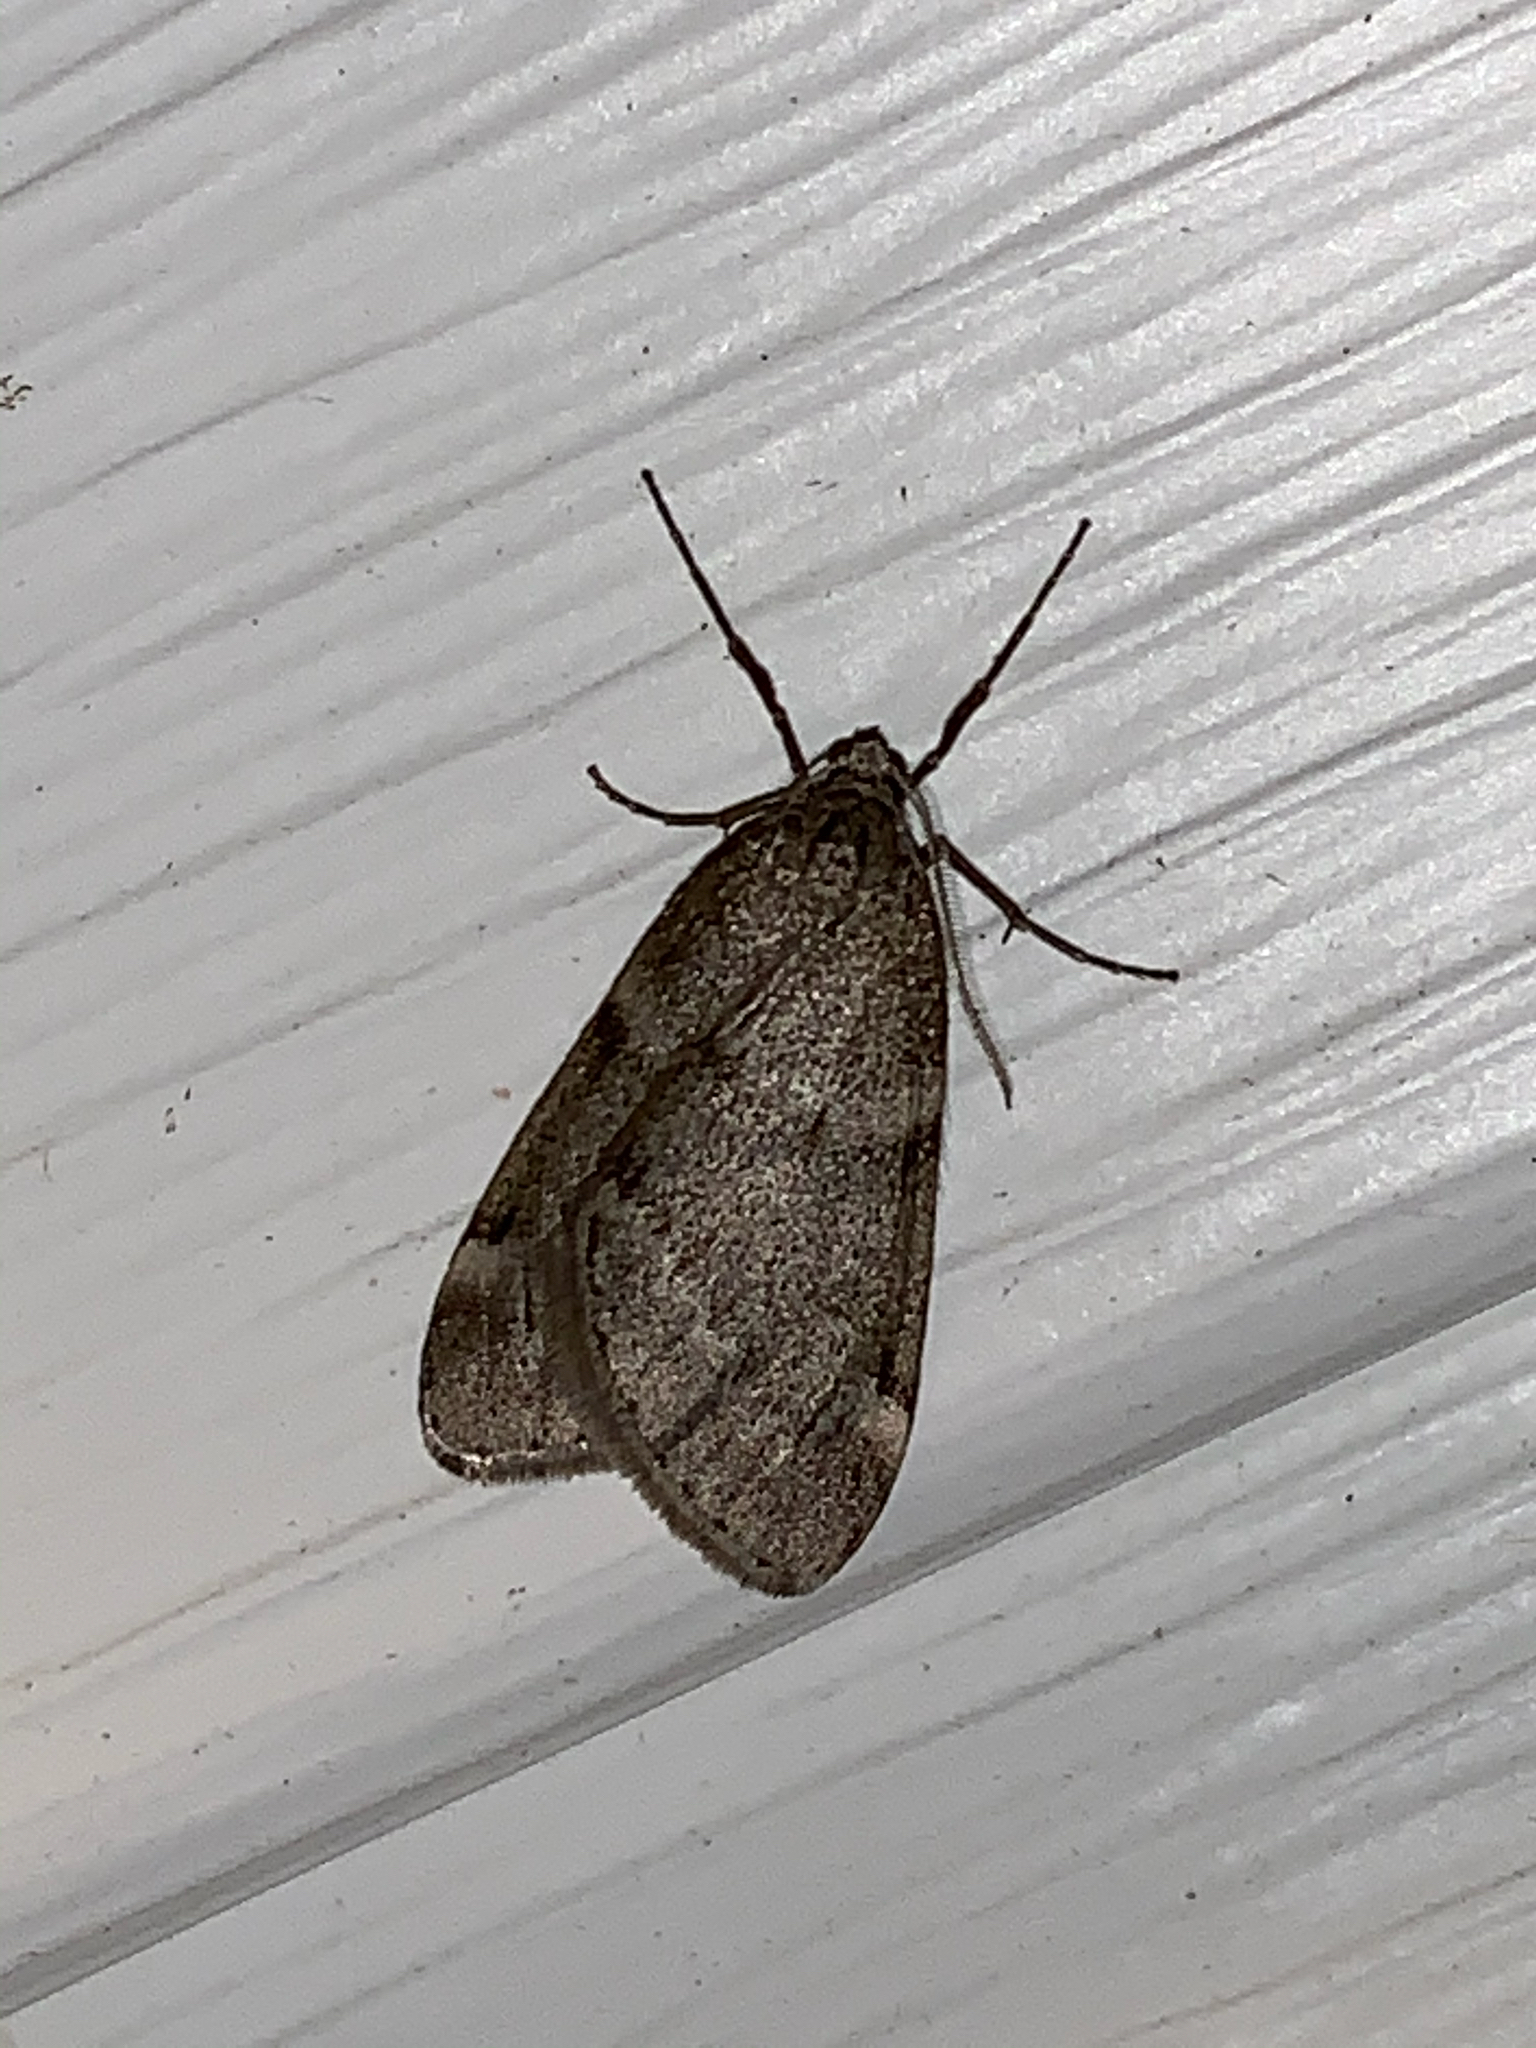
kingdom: Animalia
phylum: Arthropoda
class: Insecta
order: Lepidoptera
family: Geometridae
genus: Alsophila
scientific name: Alsophila pometaria
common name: Fall cankerworm
